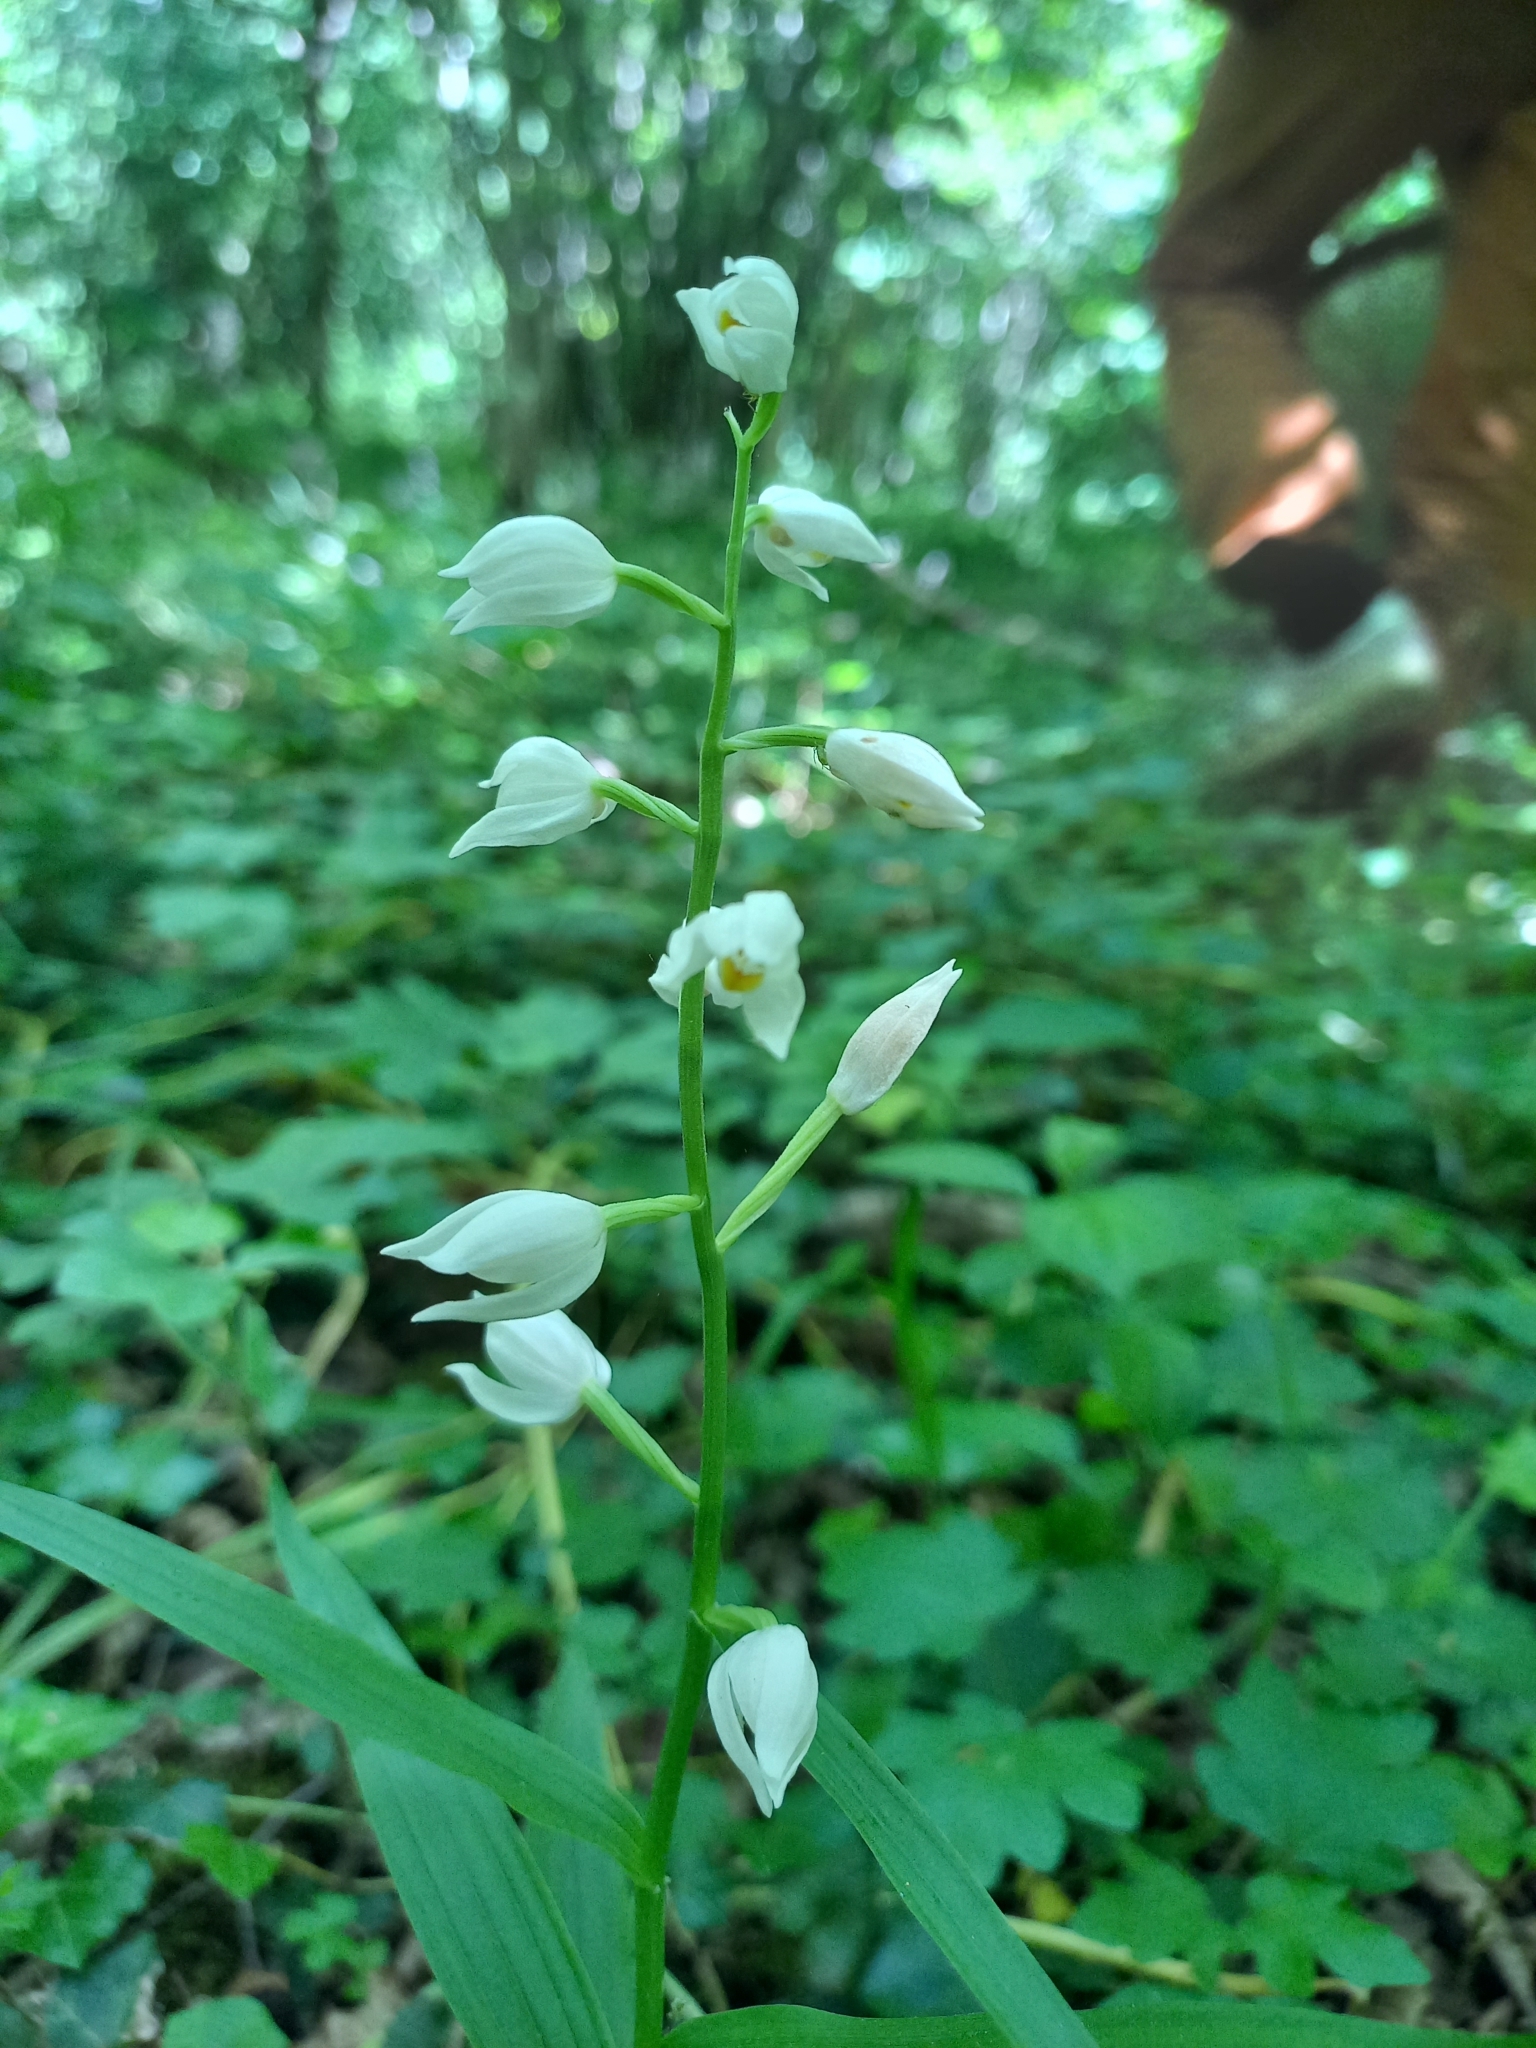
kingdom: Plantae
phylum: Tracheophyta
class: Liliopsida
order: Asparagales
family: Orchidaceae
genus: Cephalanthera
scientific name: Cephalanthera longifolia
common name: Narrow-leaved helleborine
